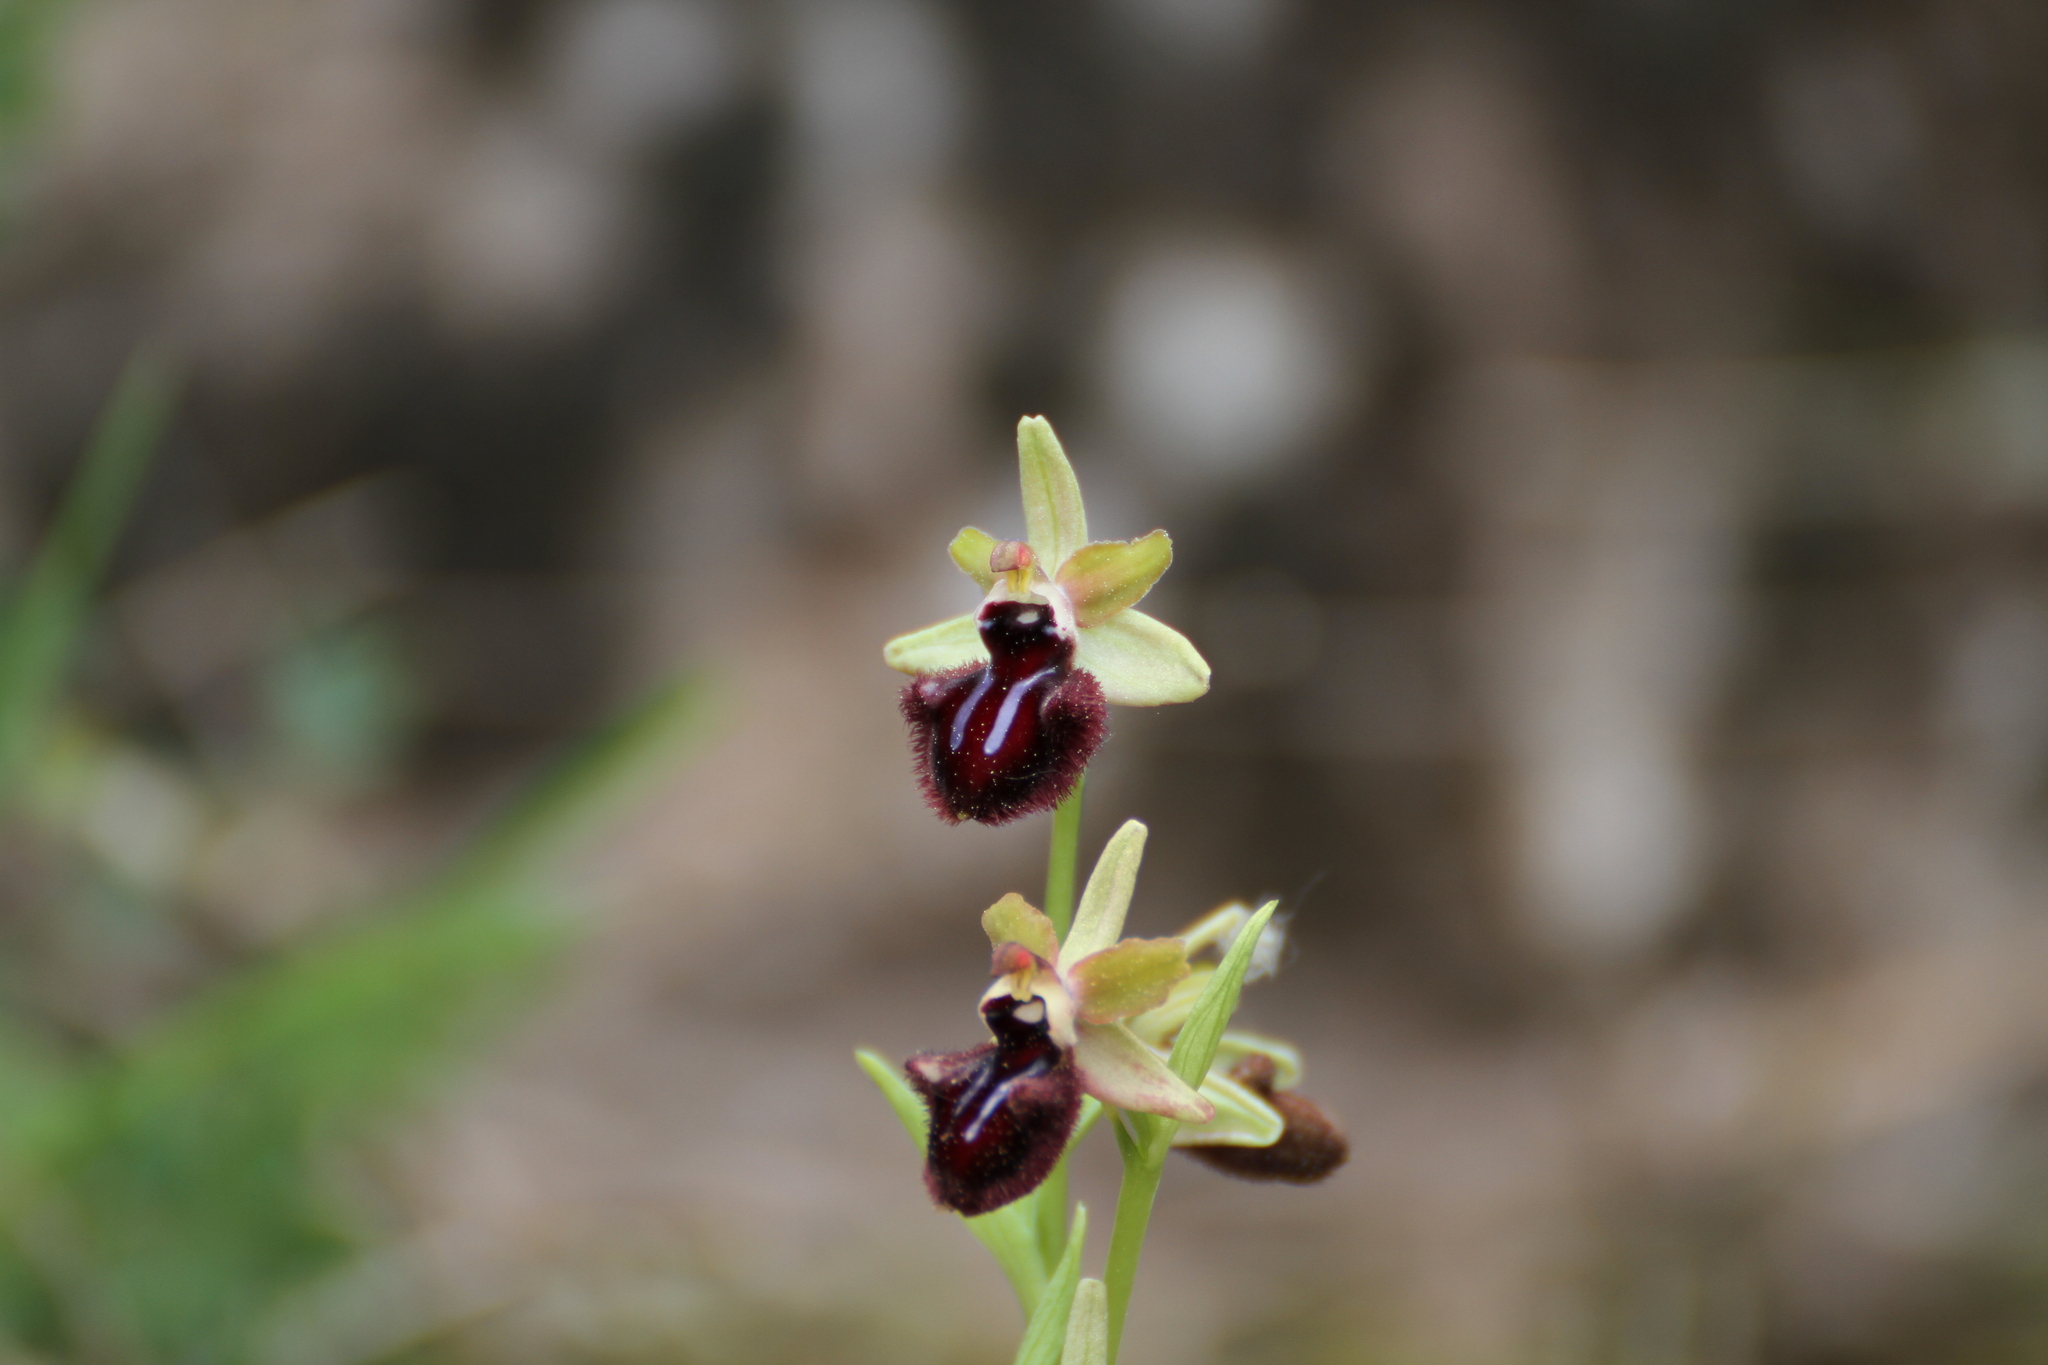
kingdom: Plantae
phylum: Tracheophyta
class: Liliopsida
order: Asparagales
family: Orchidaceae
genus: Ophrys
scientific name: Ophrys sphegodes
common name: Early spider-orchid
